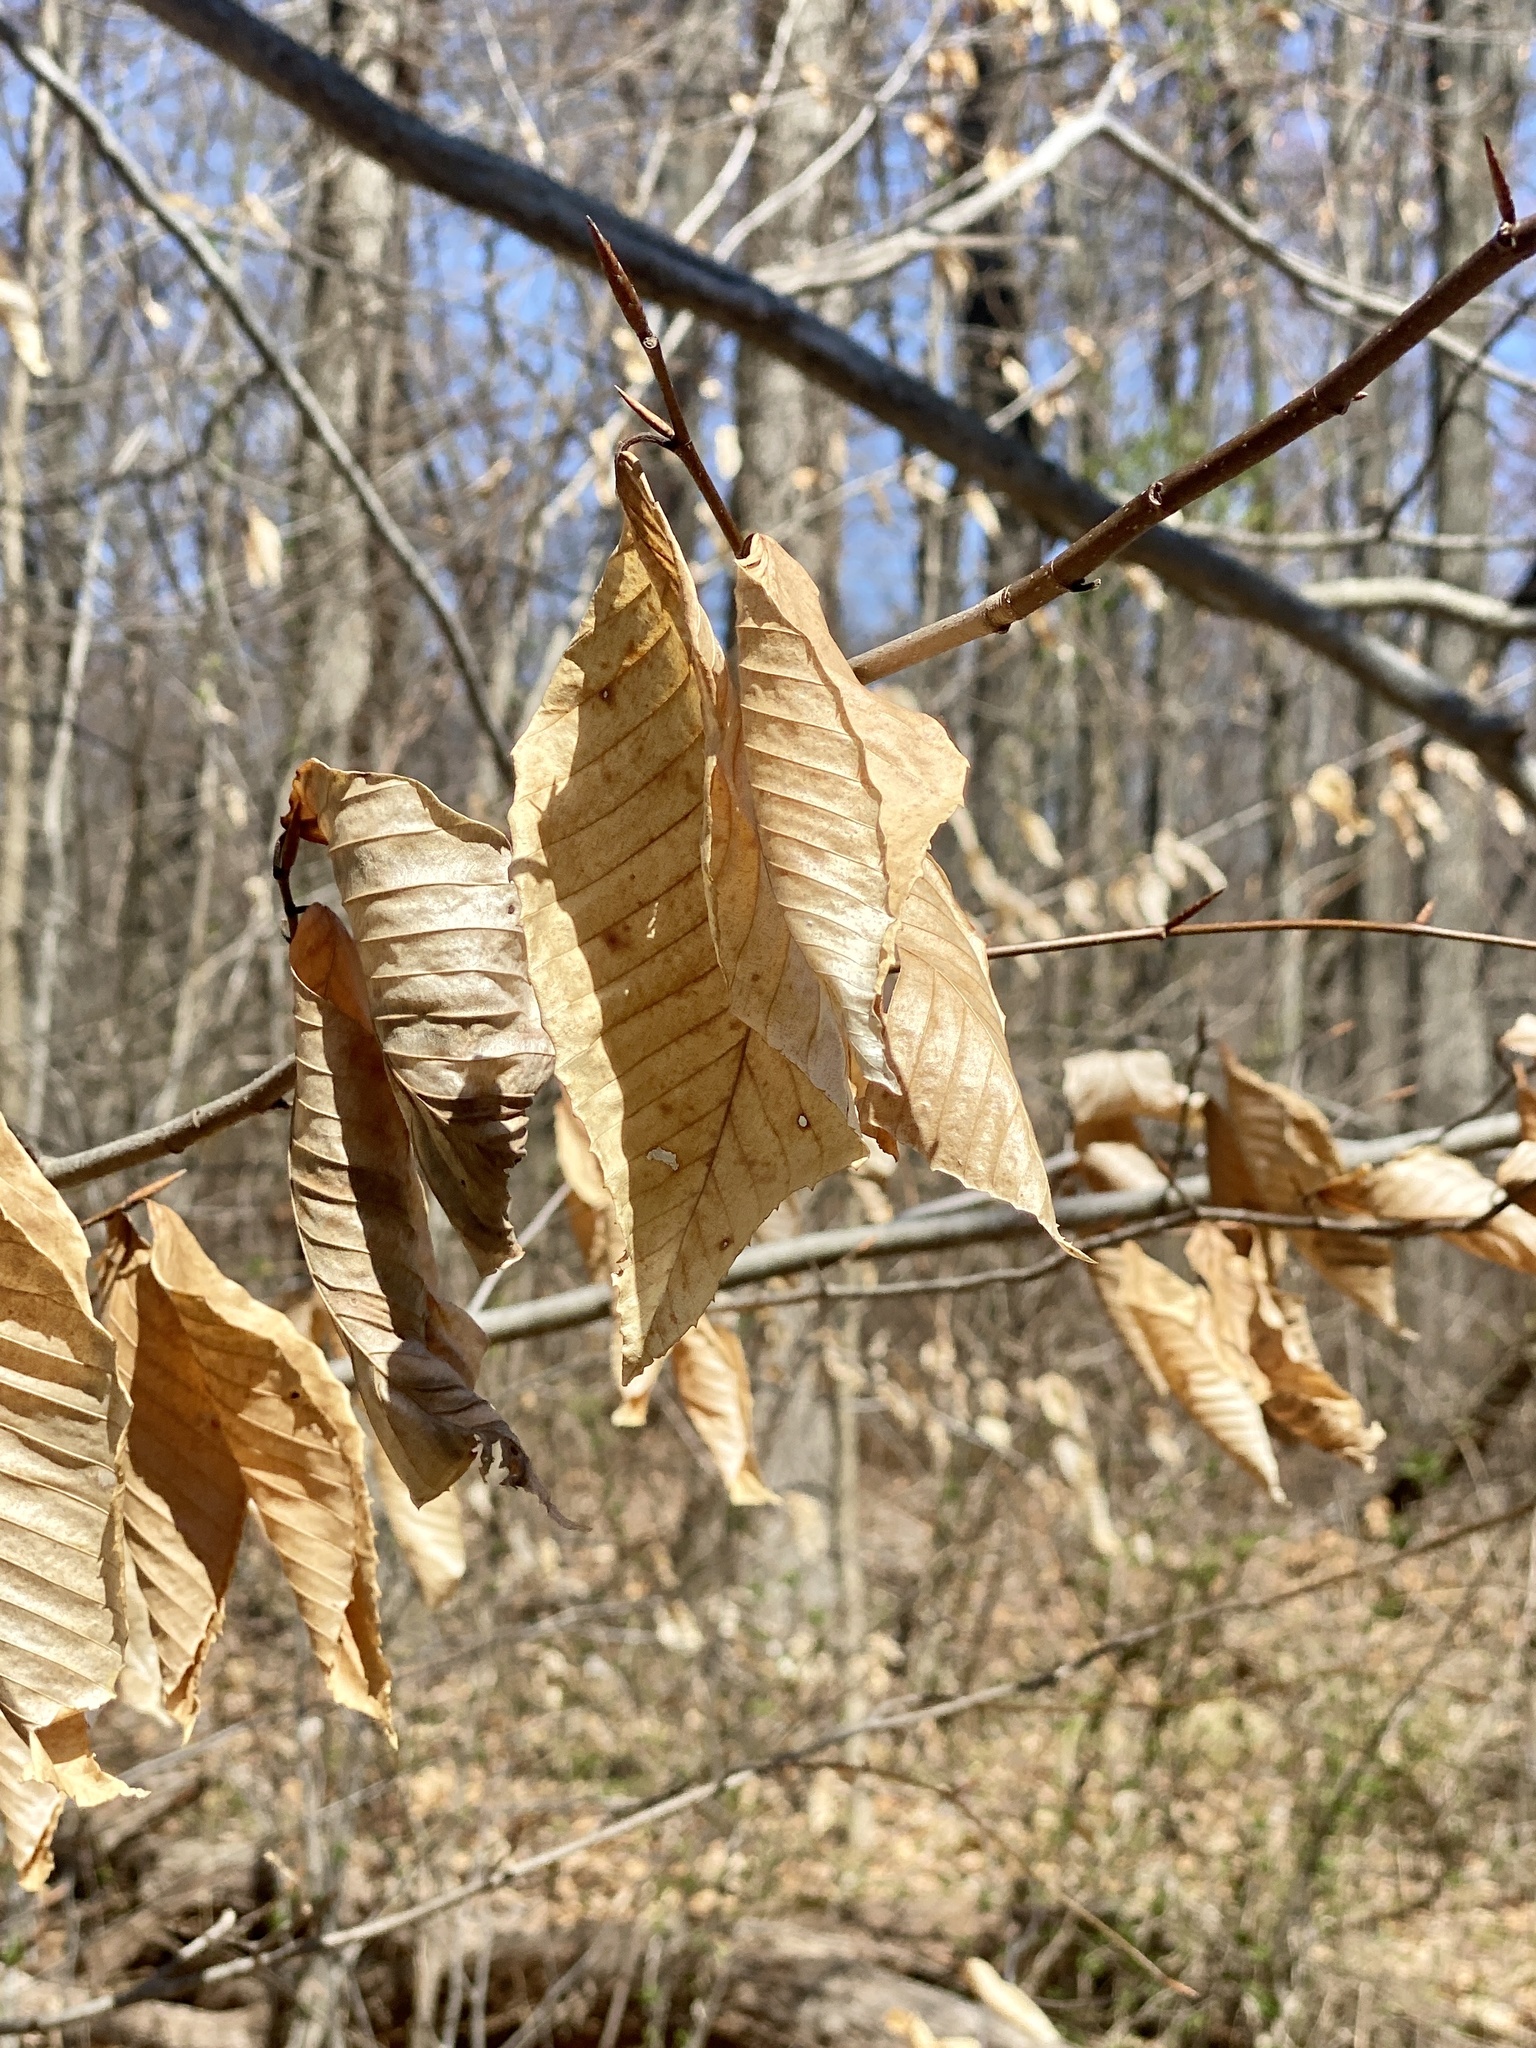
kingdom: Plantae
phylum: Tracheophyta
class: Magnoliopsida
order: Fagales
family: Fagaceae
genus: Fagus
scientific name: Fagus grandifolia
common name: American beech
